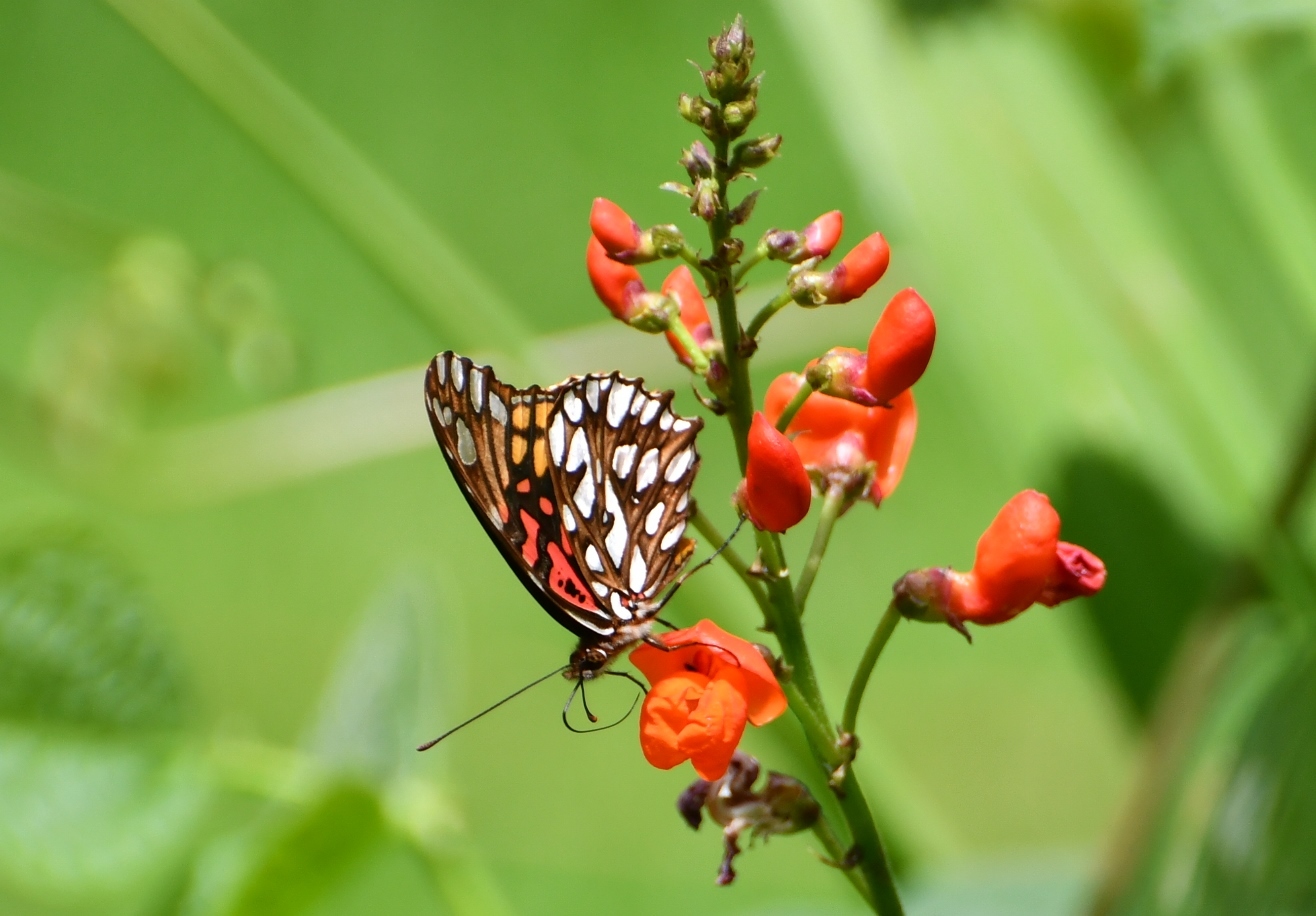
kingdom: Animalia
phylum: Arthropoda
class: Insecta
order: Lepidoptera
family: Nymphalidae
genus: Dione
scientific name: Dione moneta
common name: Mexican silverspot
